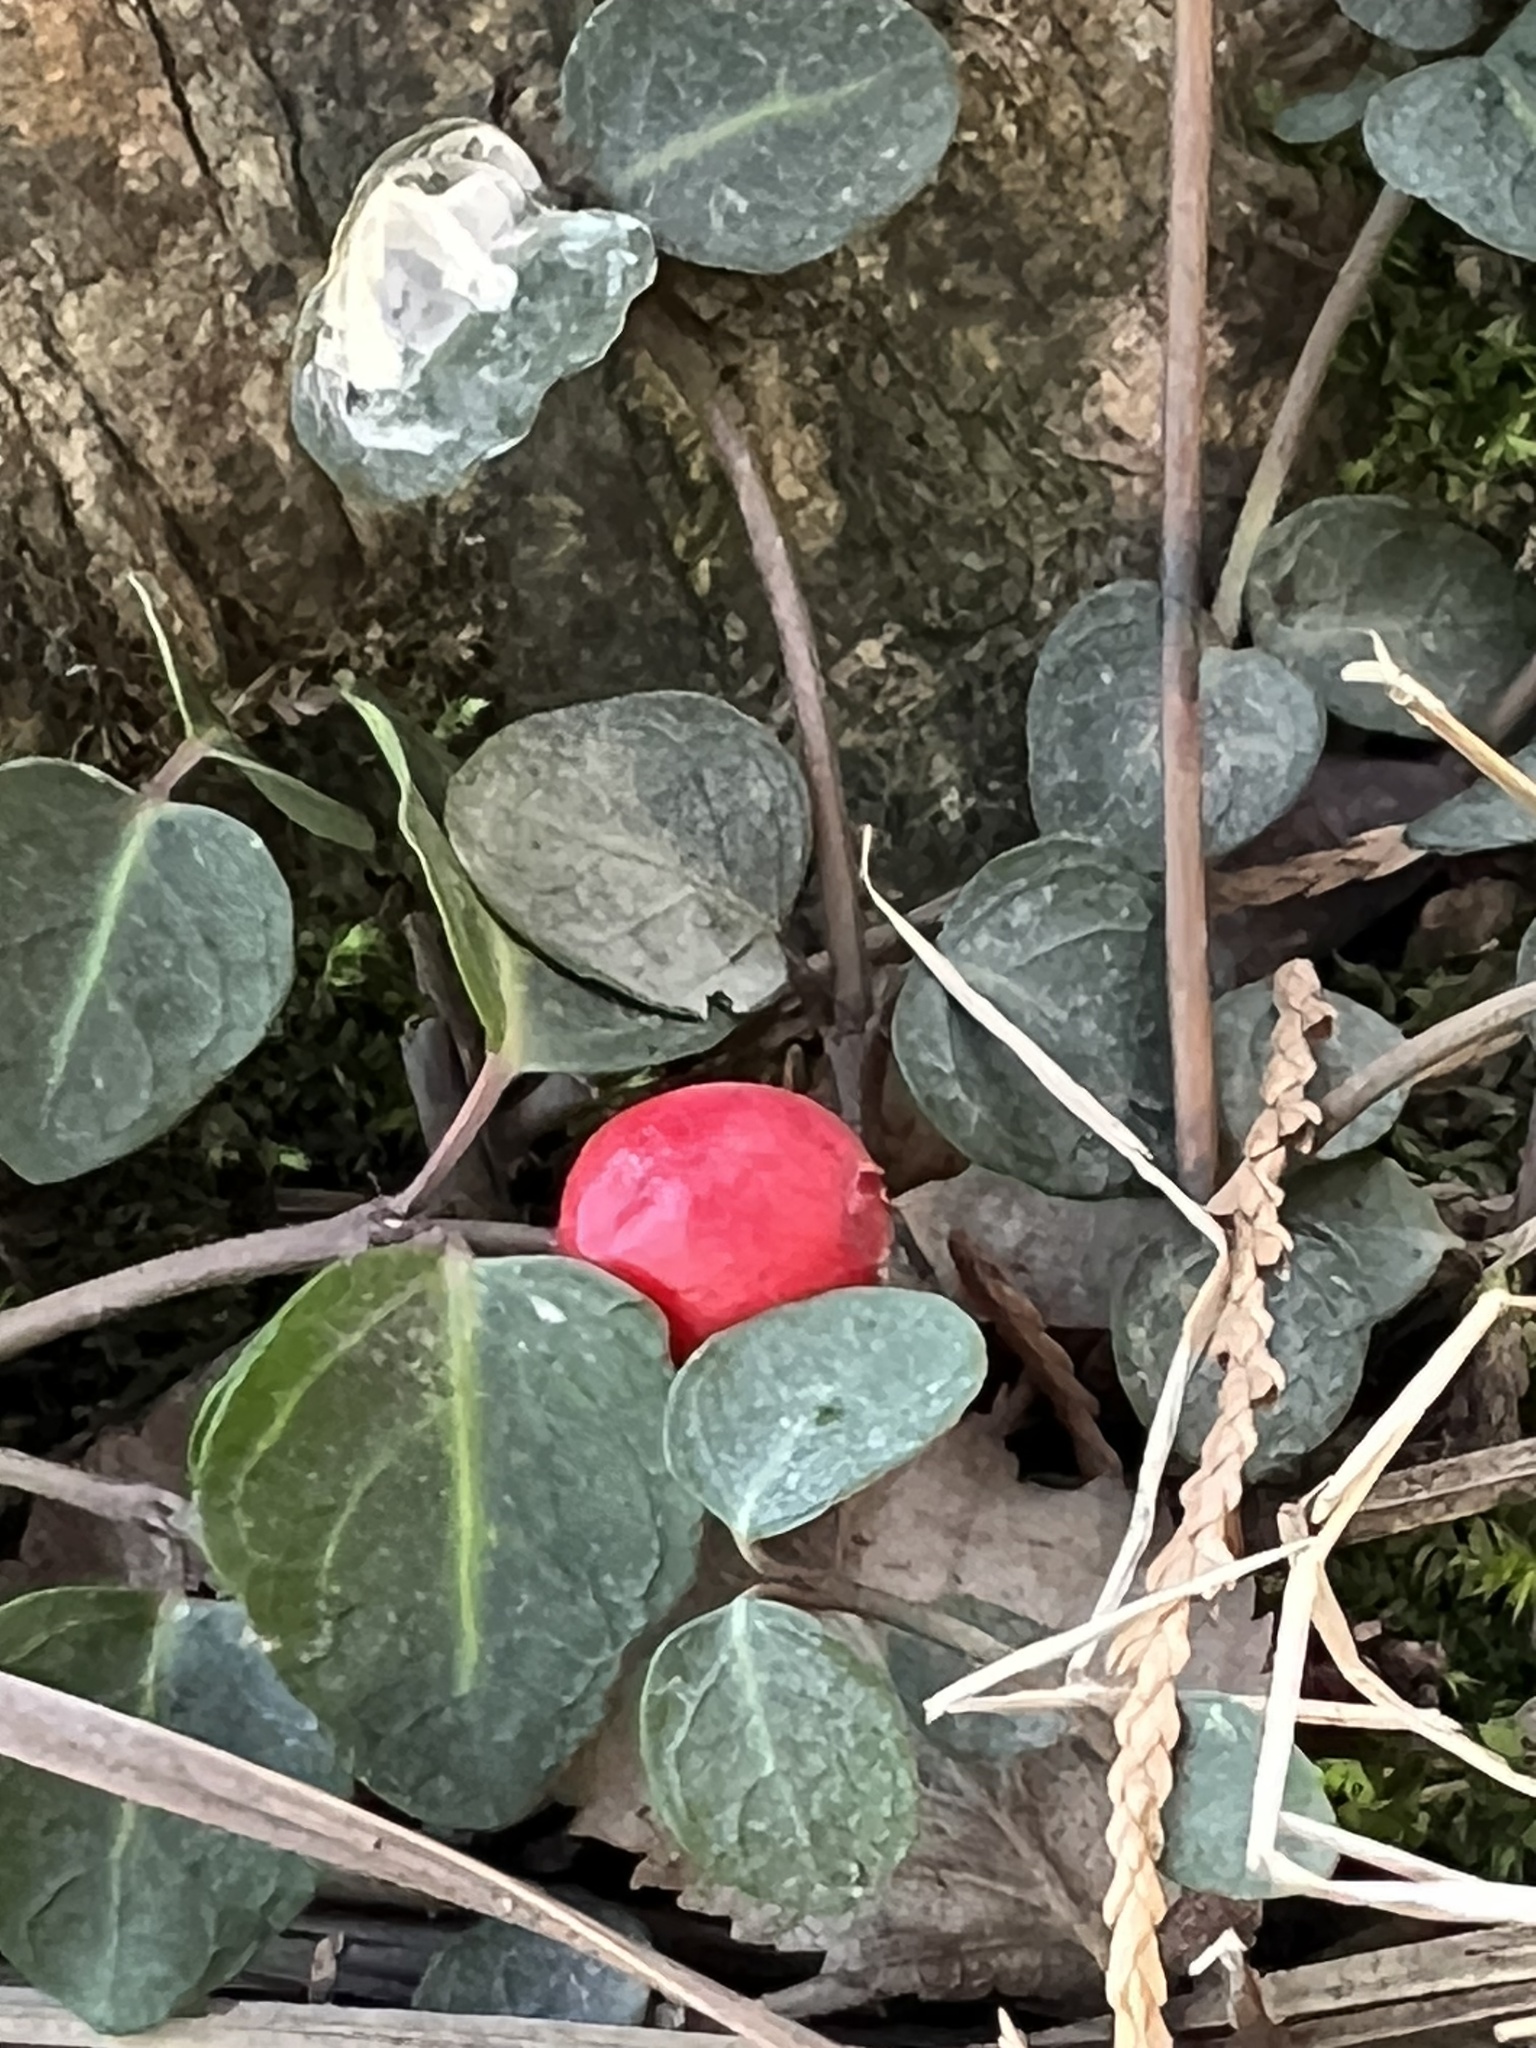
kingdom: Plantae
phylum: Tracheophyta
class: Magnoliopsida
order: Gentianales
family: Rubiaceae
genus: Mitchella
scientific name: Mitchella repens
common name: Partridge-berry
